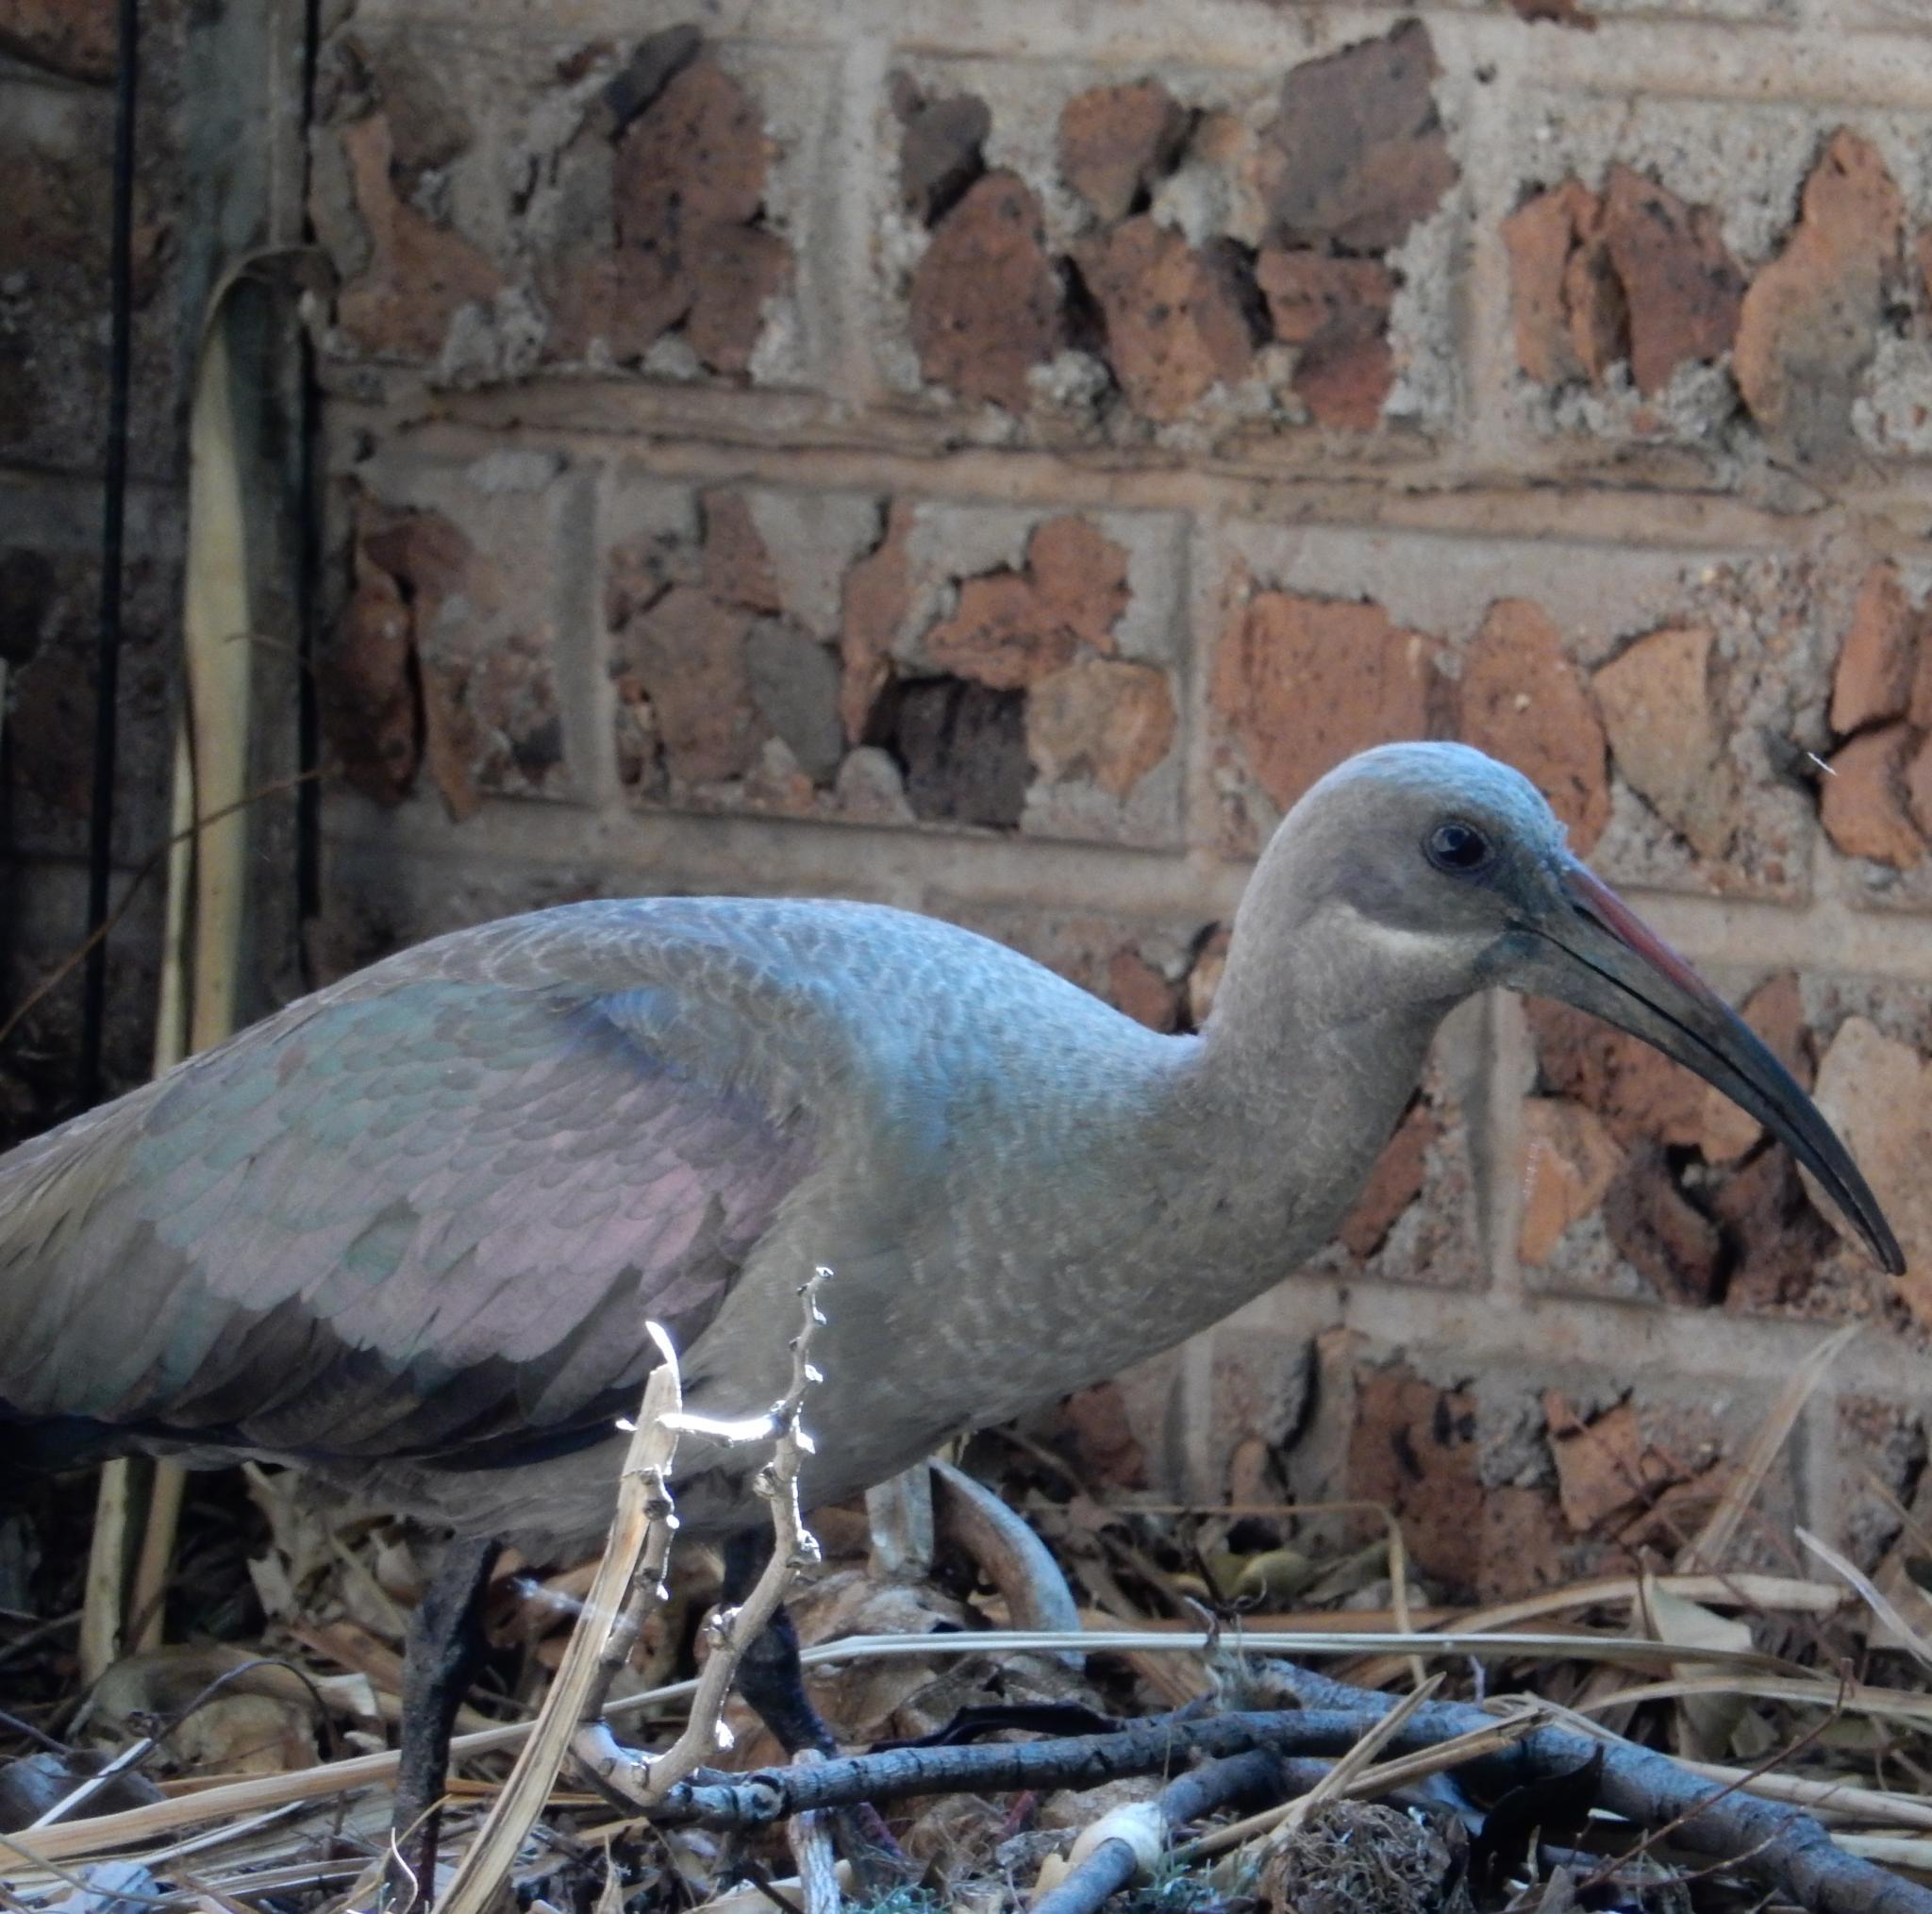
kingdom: Animalia
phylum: Chordata
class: Aves
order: Pelecaniformes
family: Threskiornithidae
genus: Bostrychia
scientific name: Bostrychia hagedash
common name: Hadada ibis
